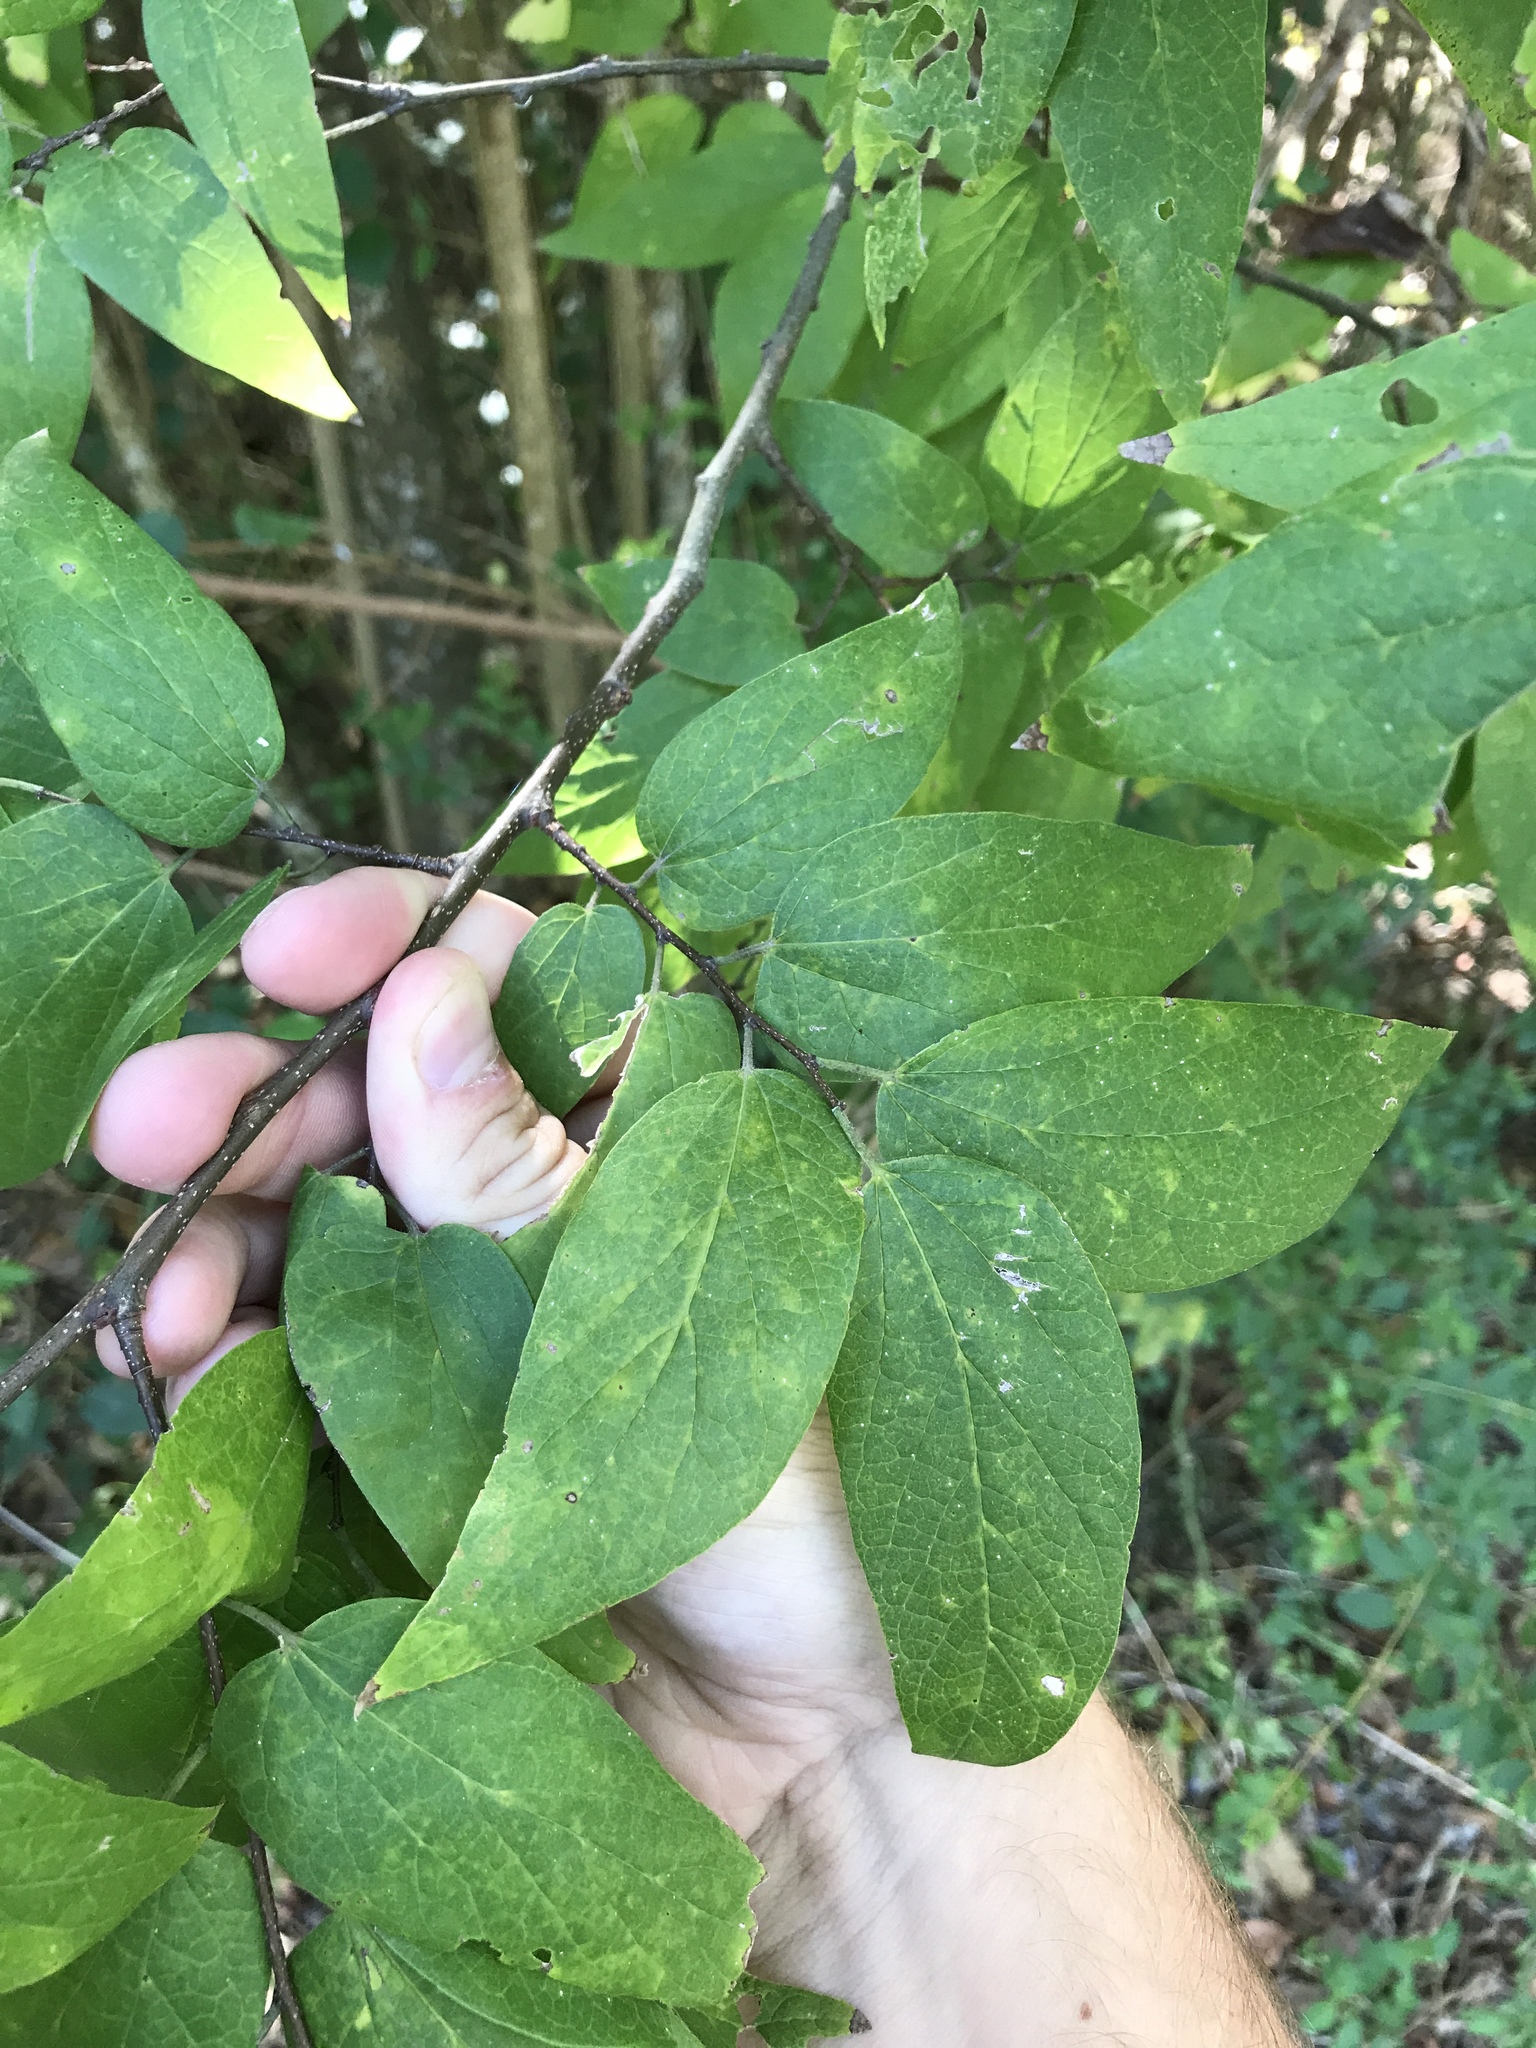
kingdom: Plantae
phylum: Tracheophyta
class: Magnoliopsida
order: Rosales
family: Cannabaceae
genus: Celtis
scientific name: Celtis laevigata
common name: Sugarberry
